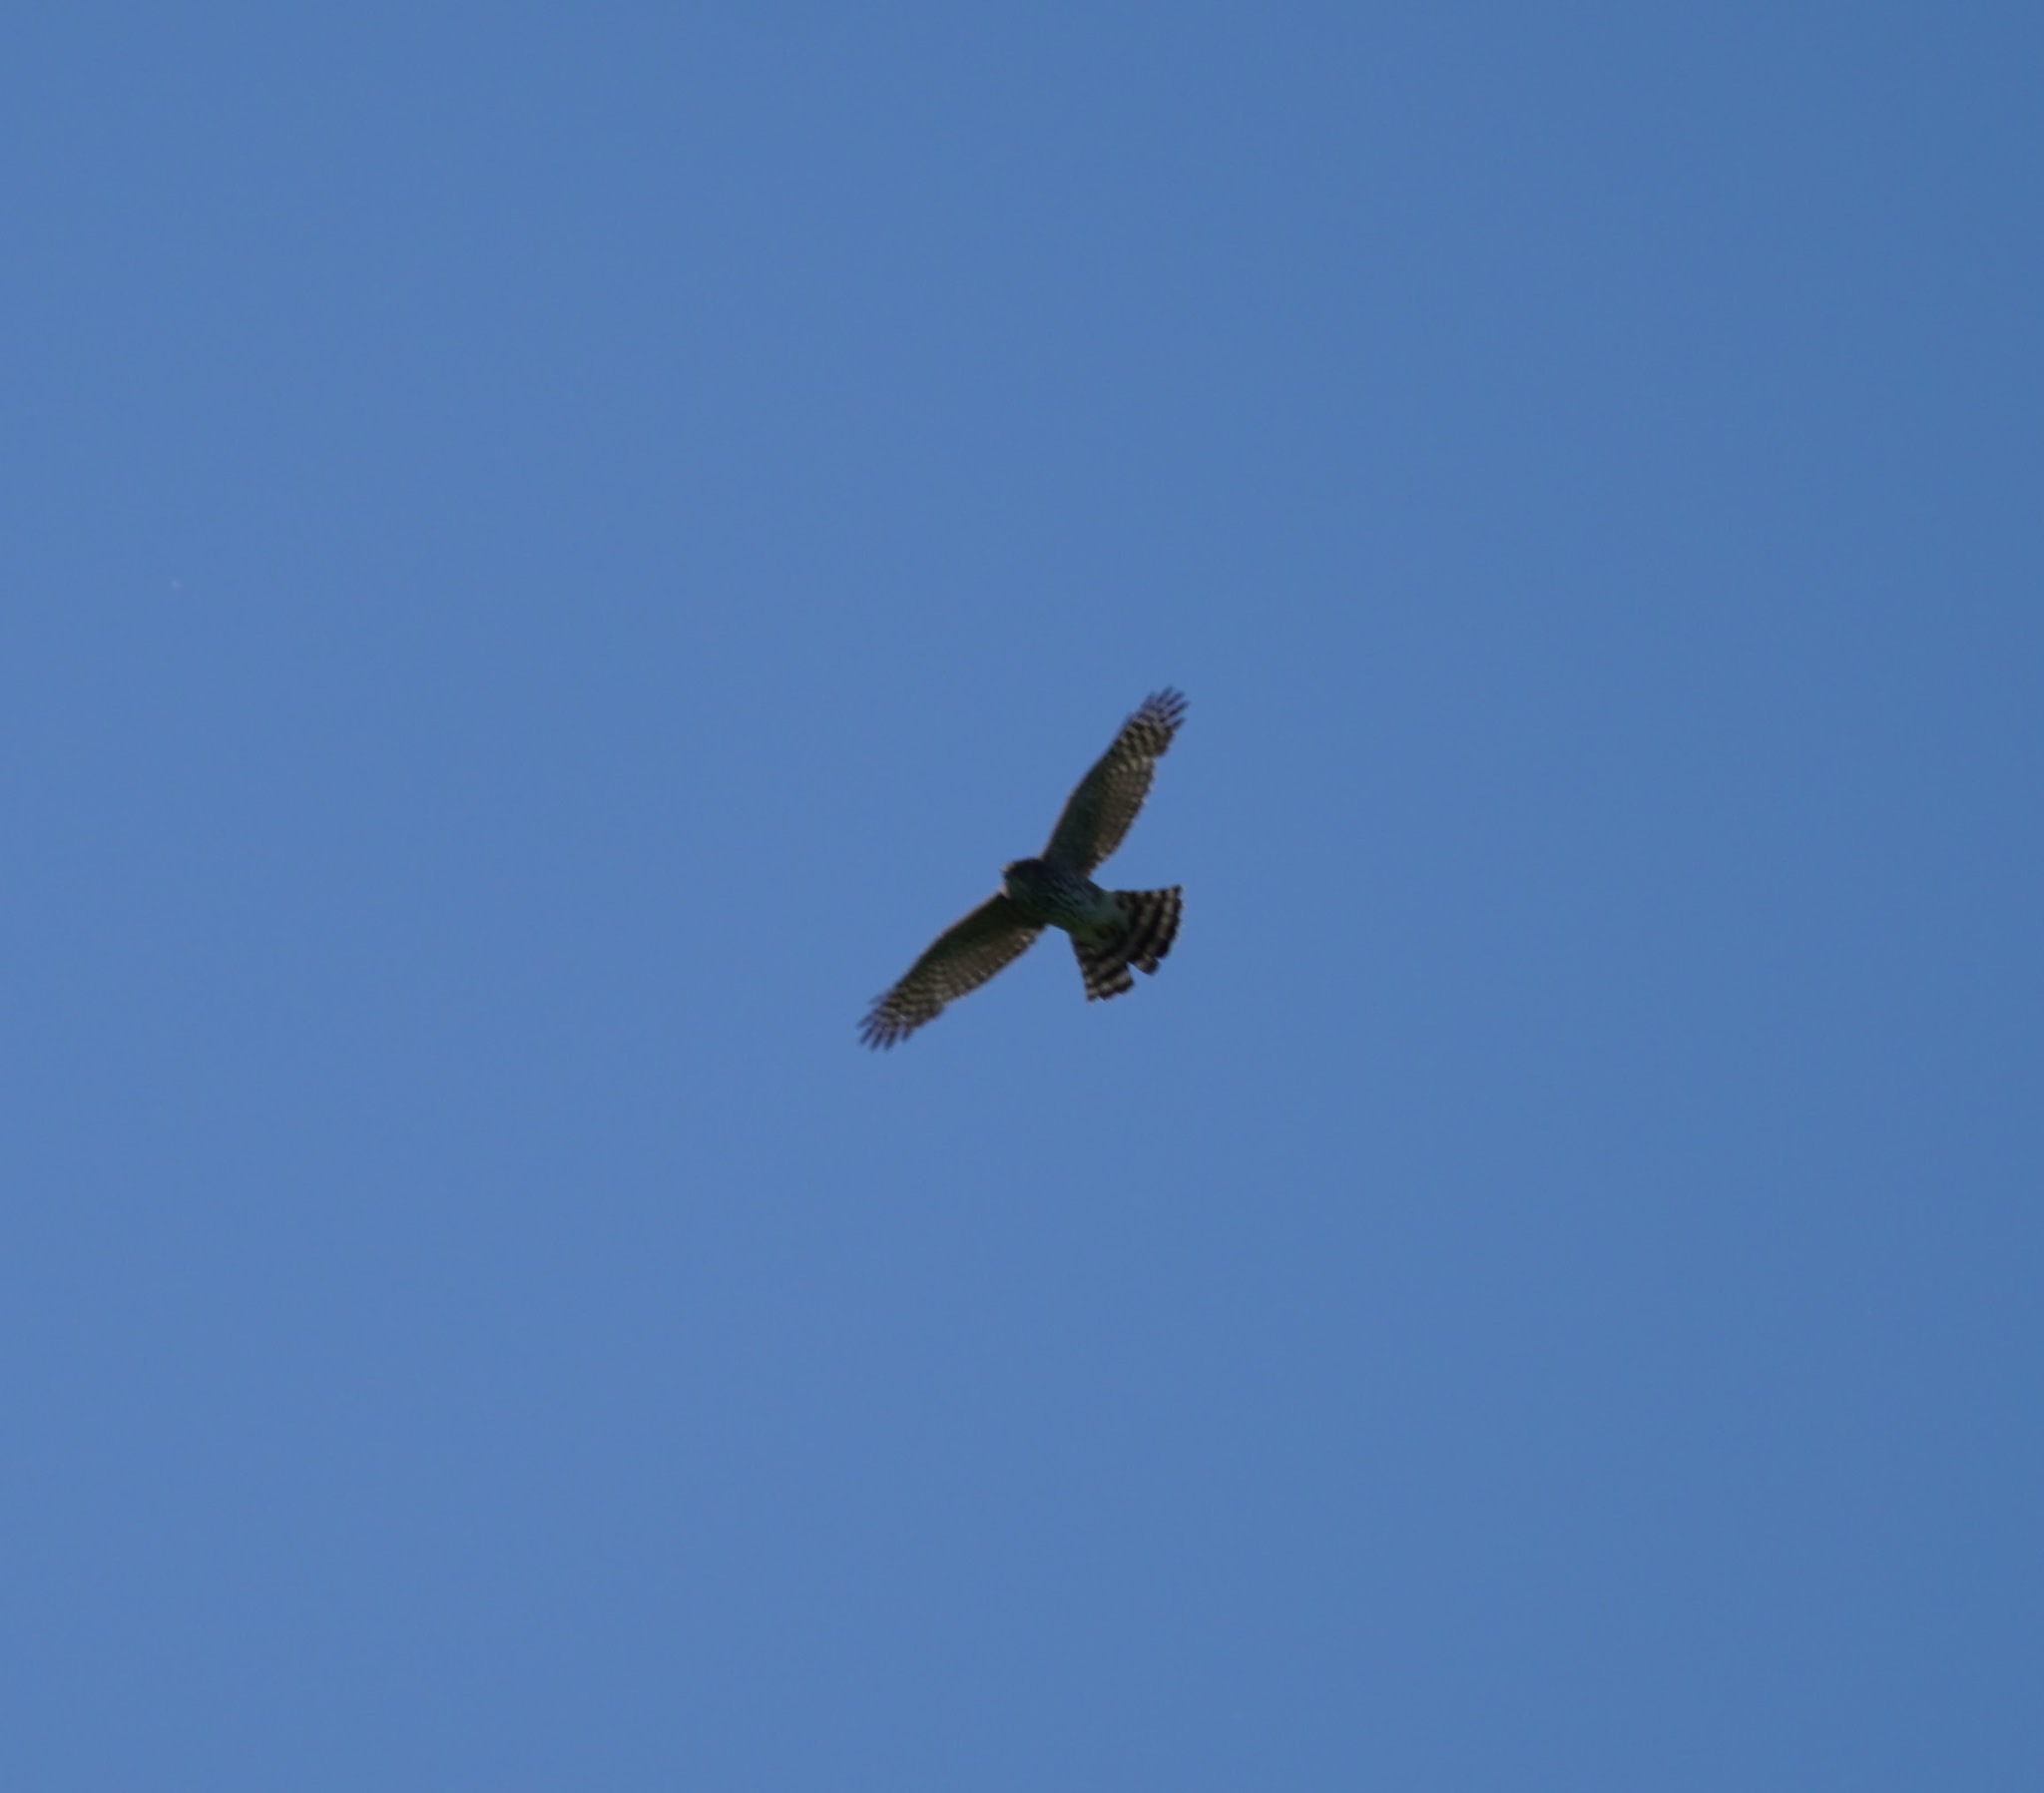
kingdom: Animalia
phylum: Chordata
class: Aves
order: Accipitriformes
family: Accipitridae
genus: Accipiter
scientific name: Accipiter cooperii
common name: Cooper's hawk
